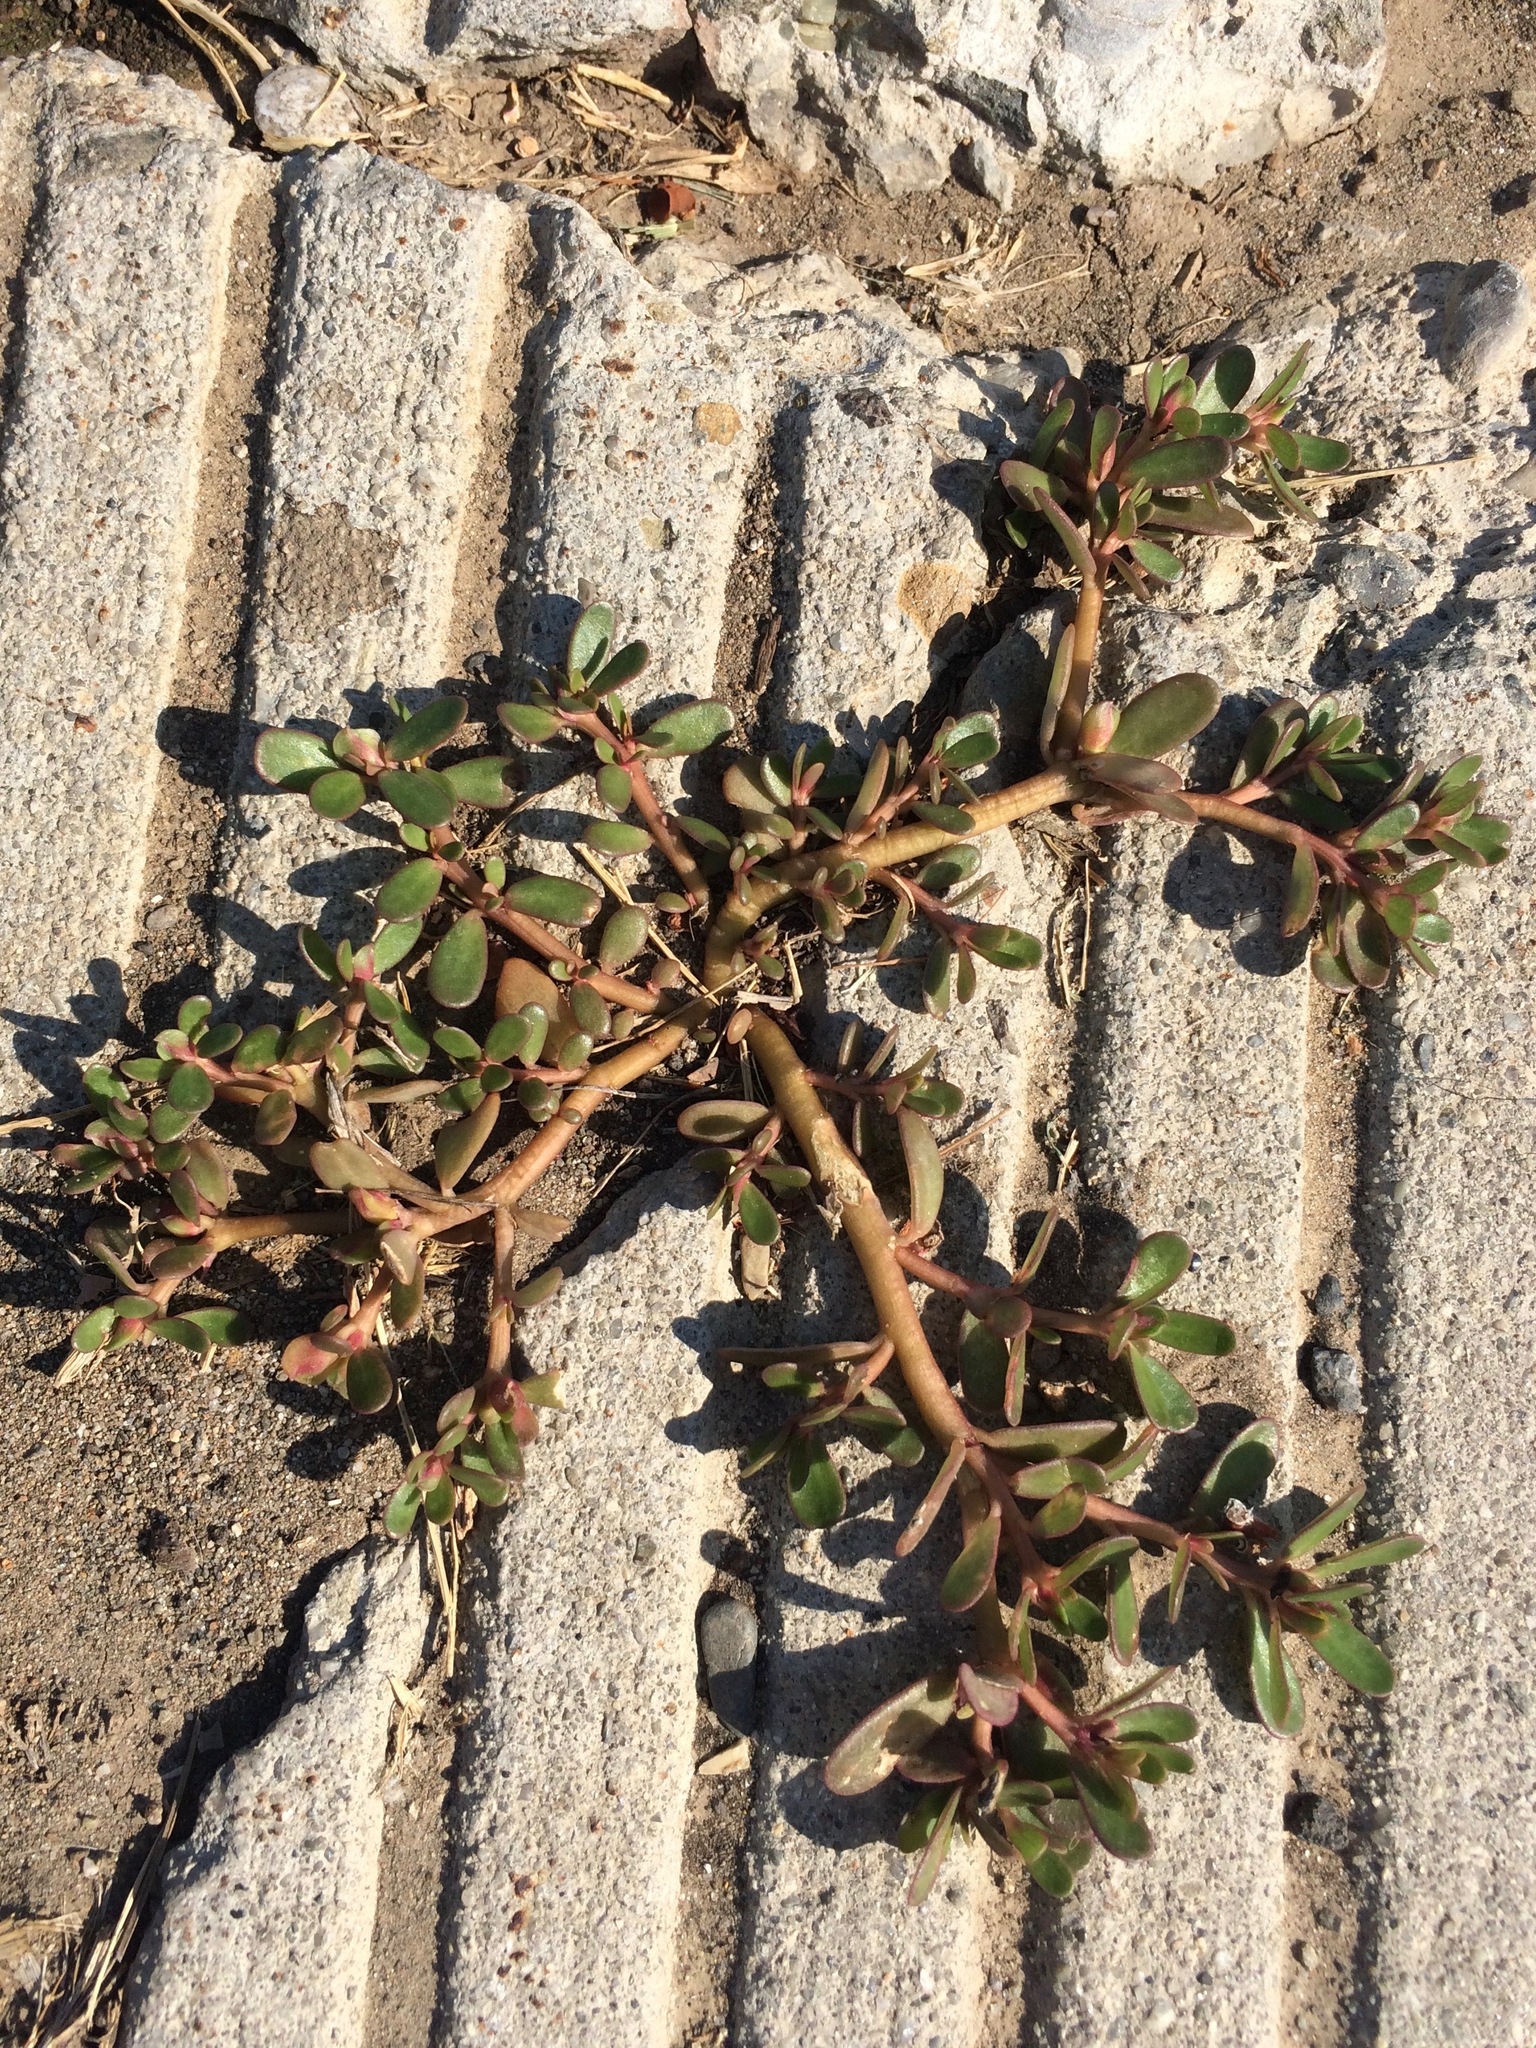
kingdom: Plantae
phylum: Tracheophyta
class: Magnoliopsida
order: Caryophyllales
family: Portulacaceae
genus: Portulaca
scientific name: Portulaca oleracea
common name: Common purslane
